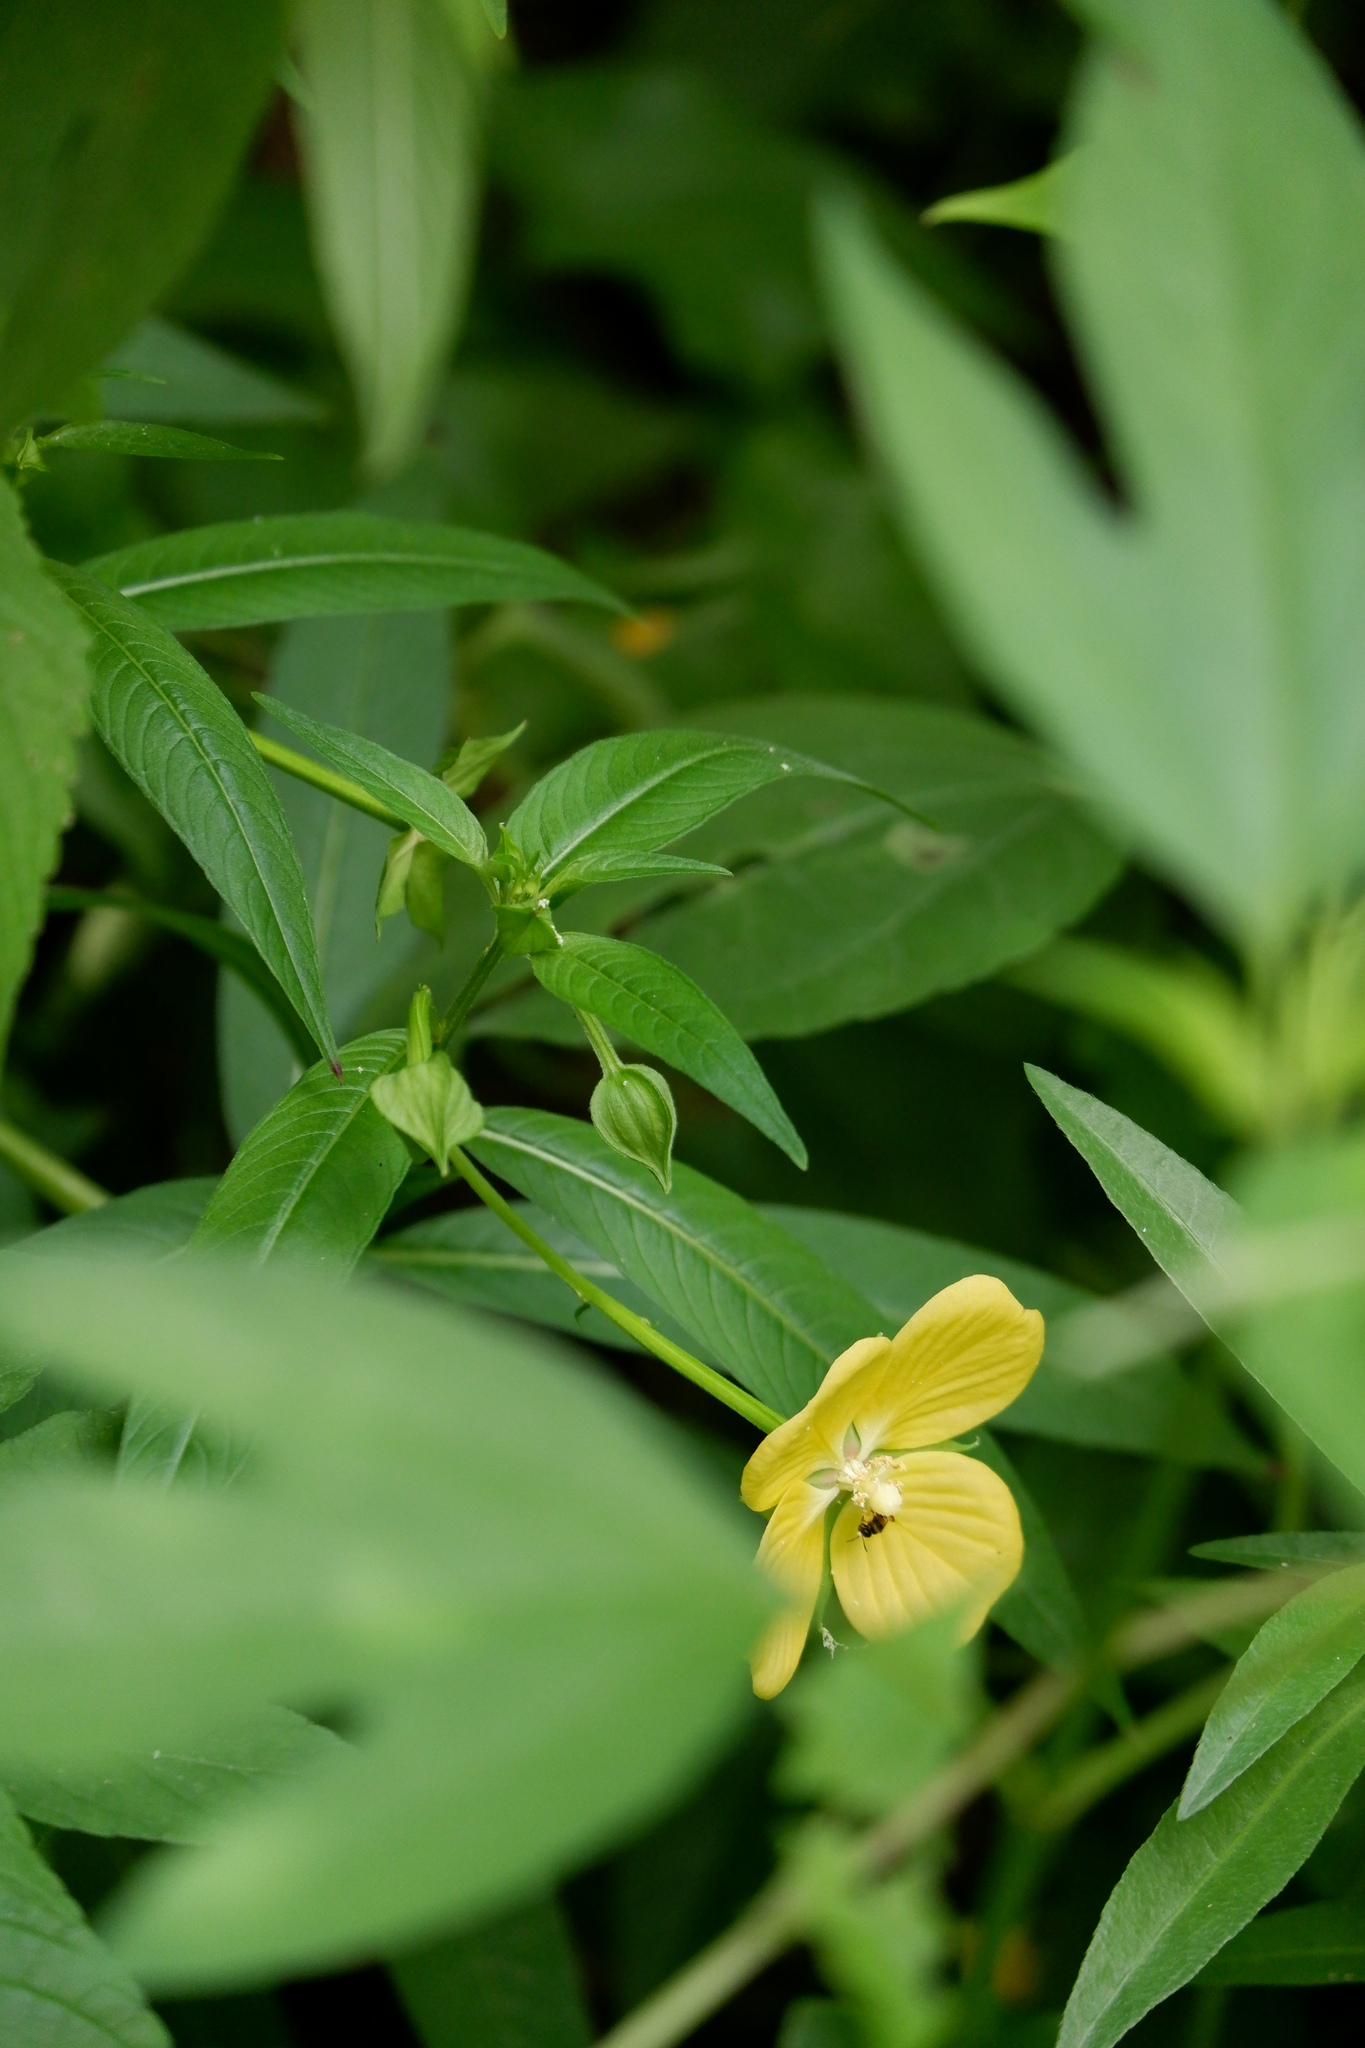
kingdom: Plantae
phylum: Tracheophyta
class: Magnoliopsida
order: Myrtales
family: Onagraceae
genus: Ludwigia
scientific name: Ludwigia octovalvis
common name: Water-primrose
